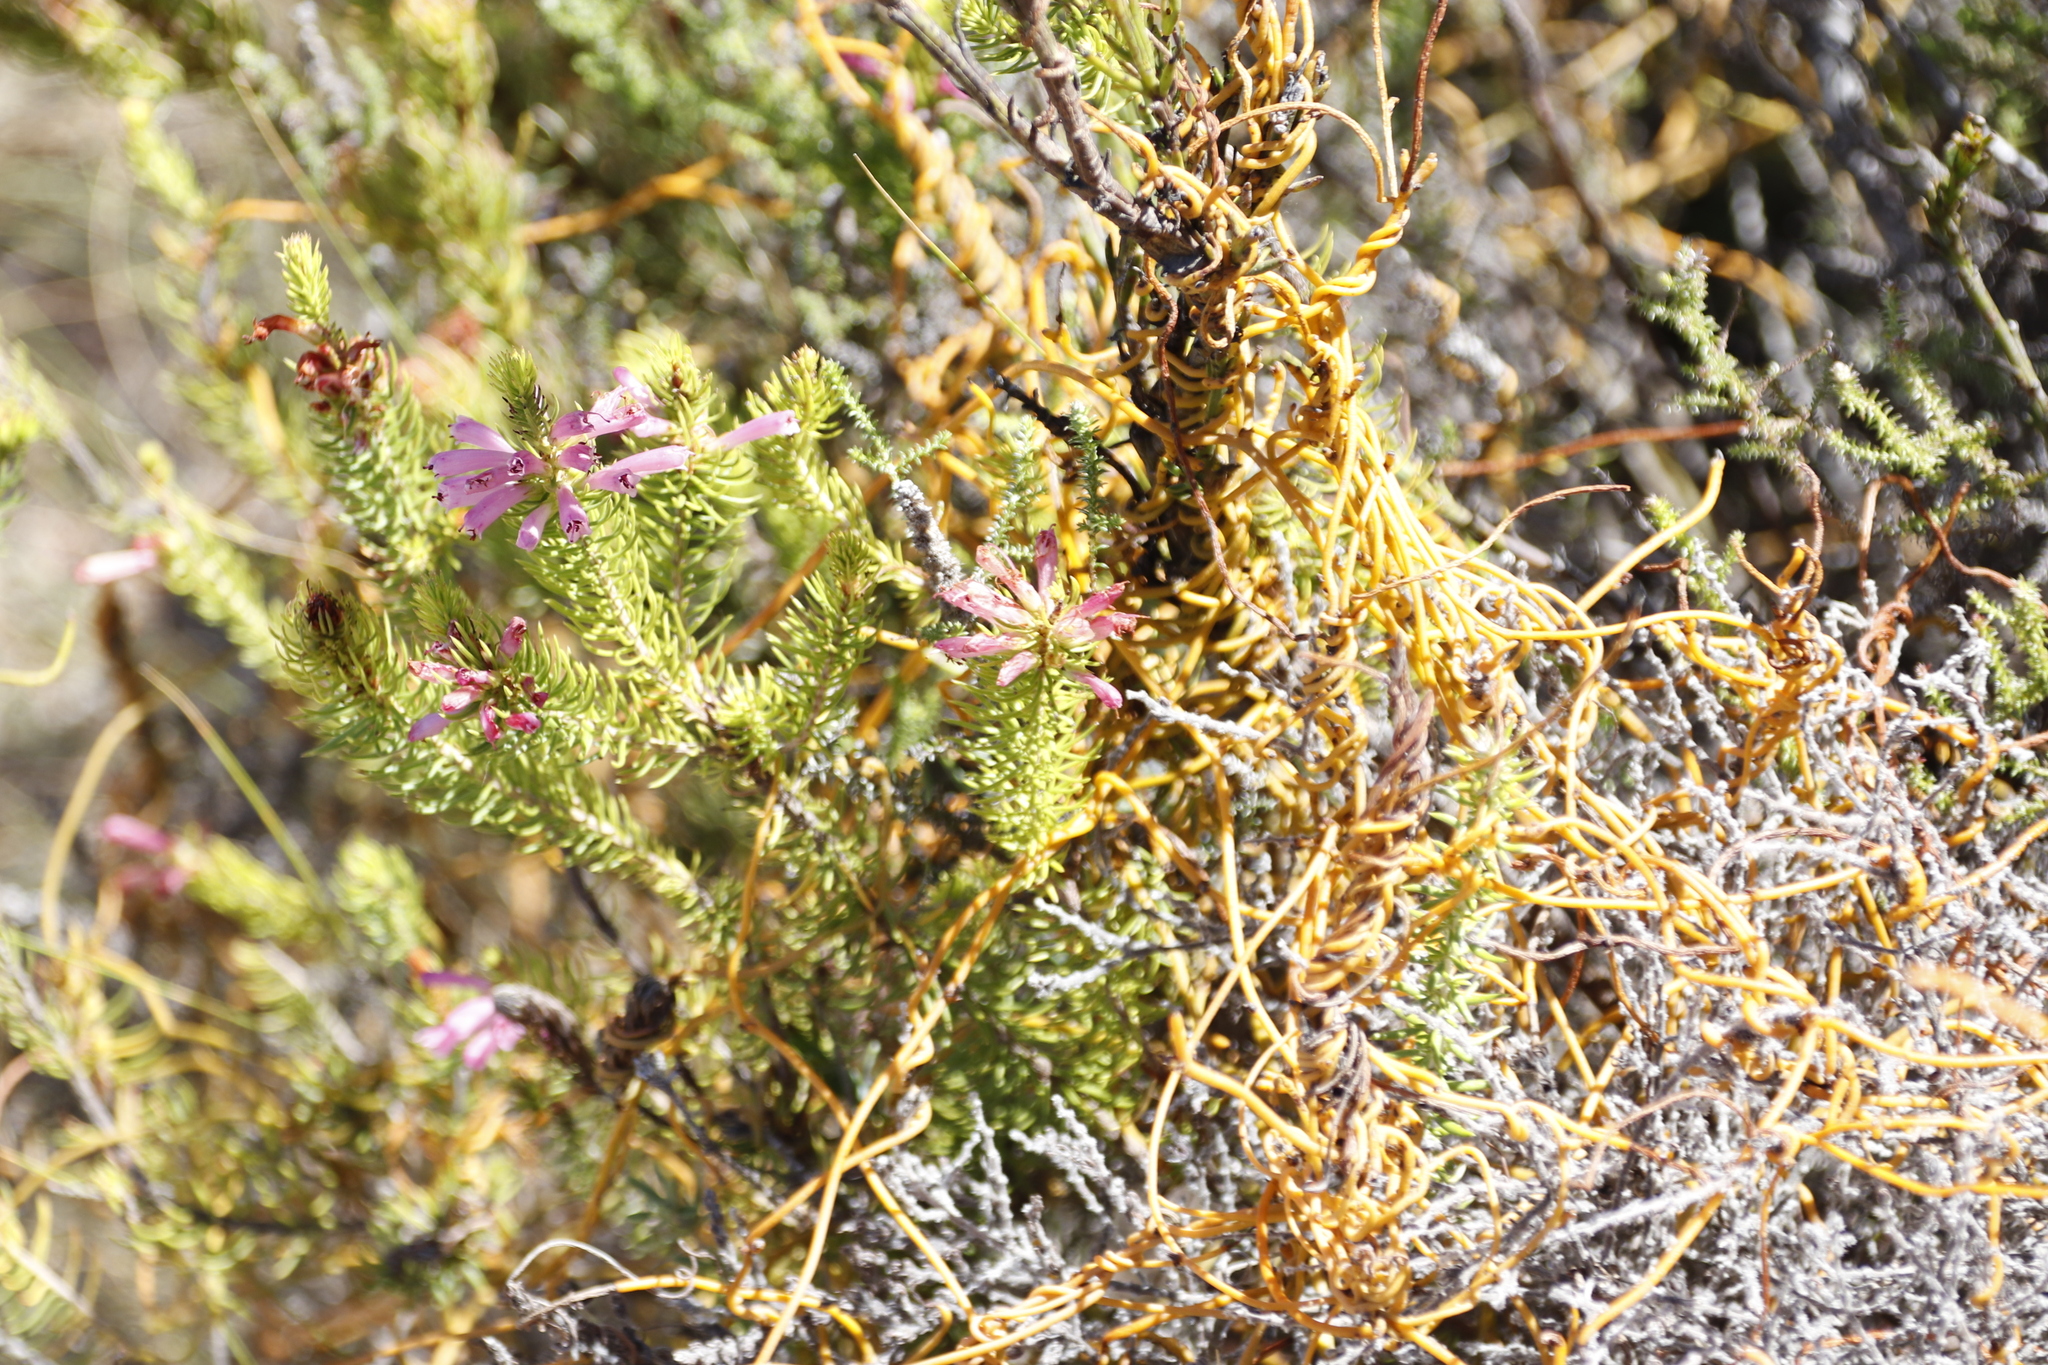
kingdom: Plantae
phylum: Tracheophyta
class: Magnoliopsida
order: Laurales
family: Lauraceae
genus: Cassytha
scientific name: Cassytha ciliolata
